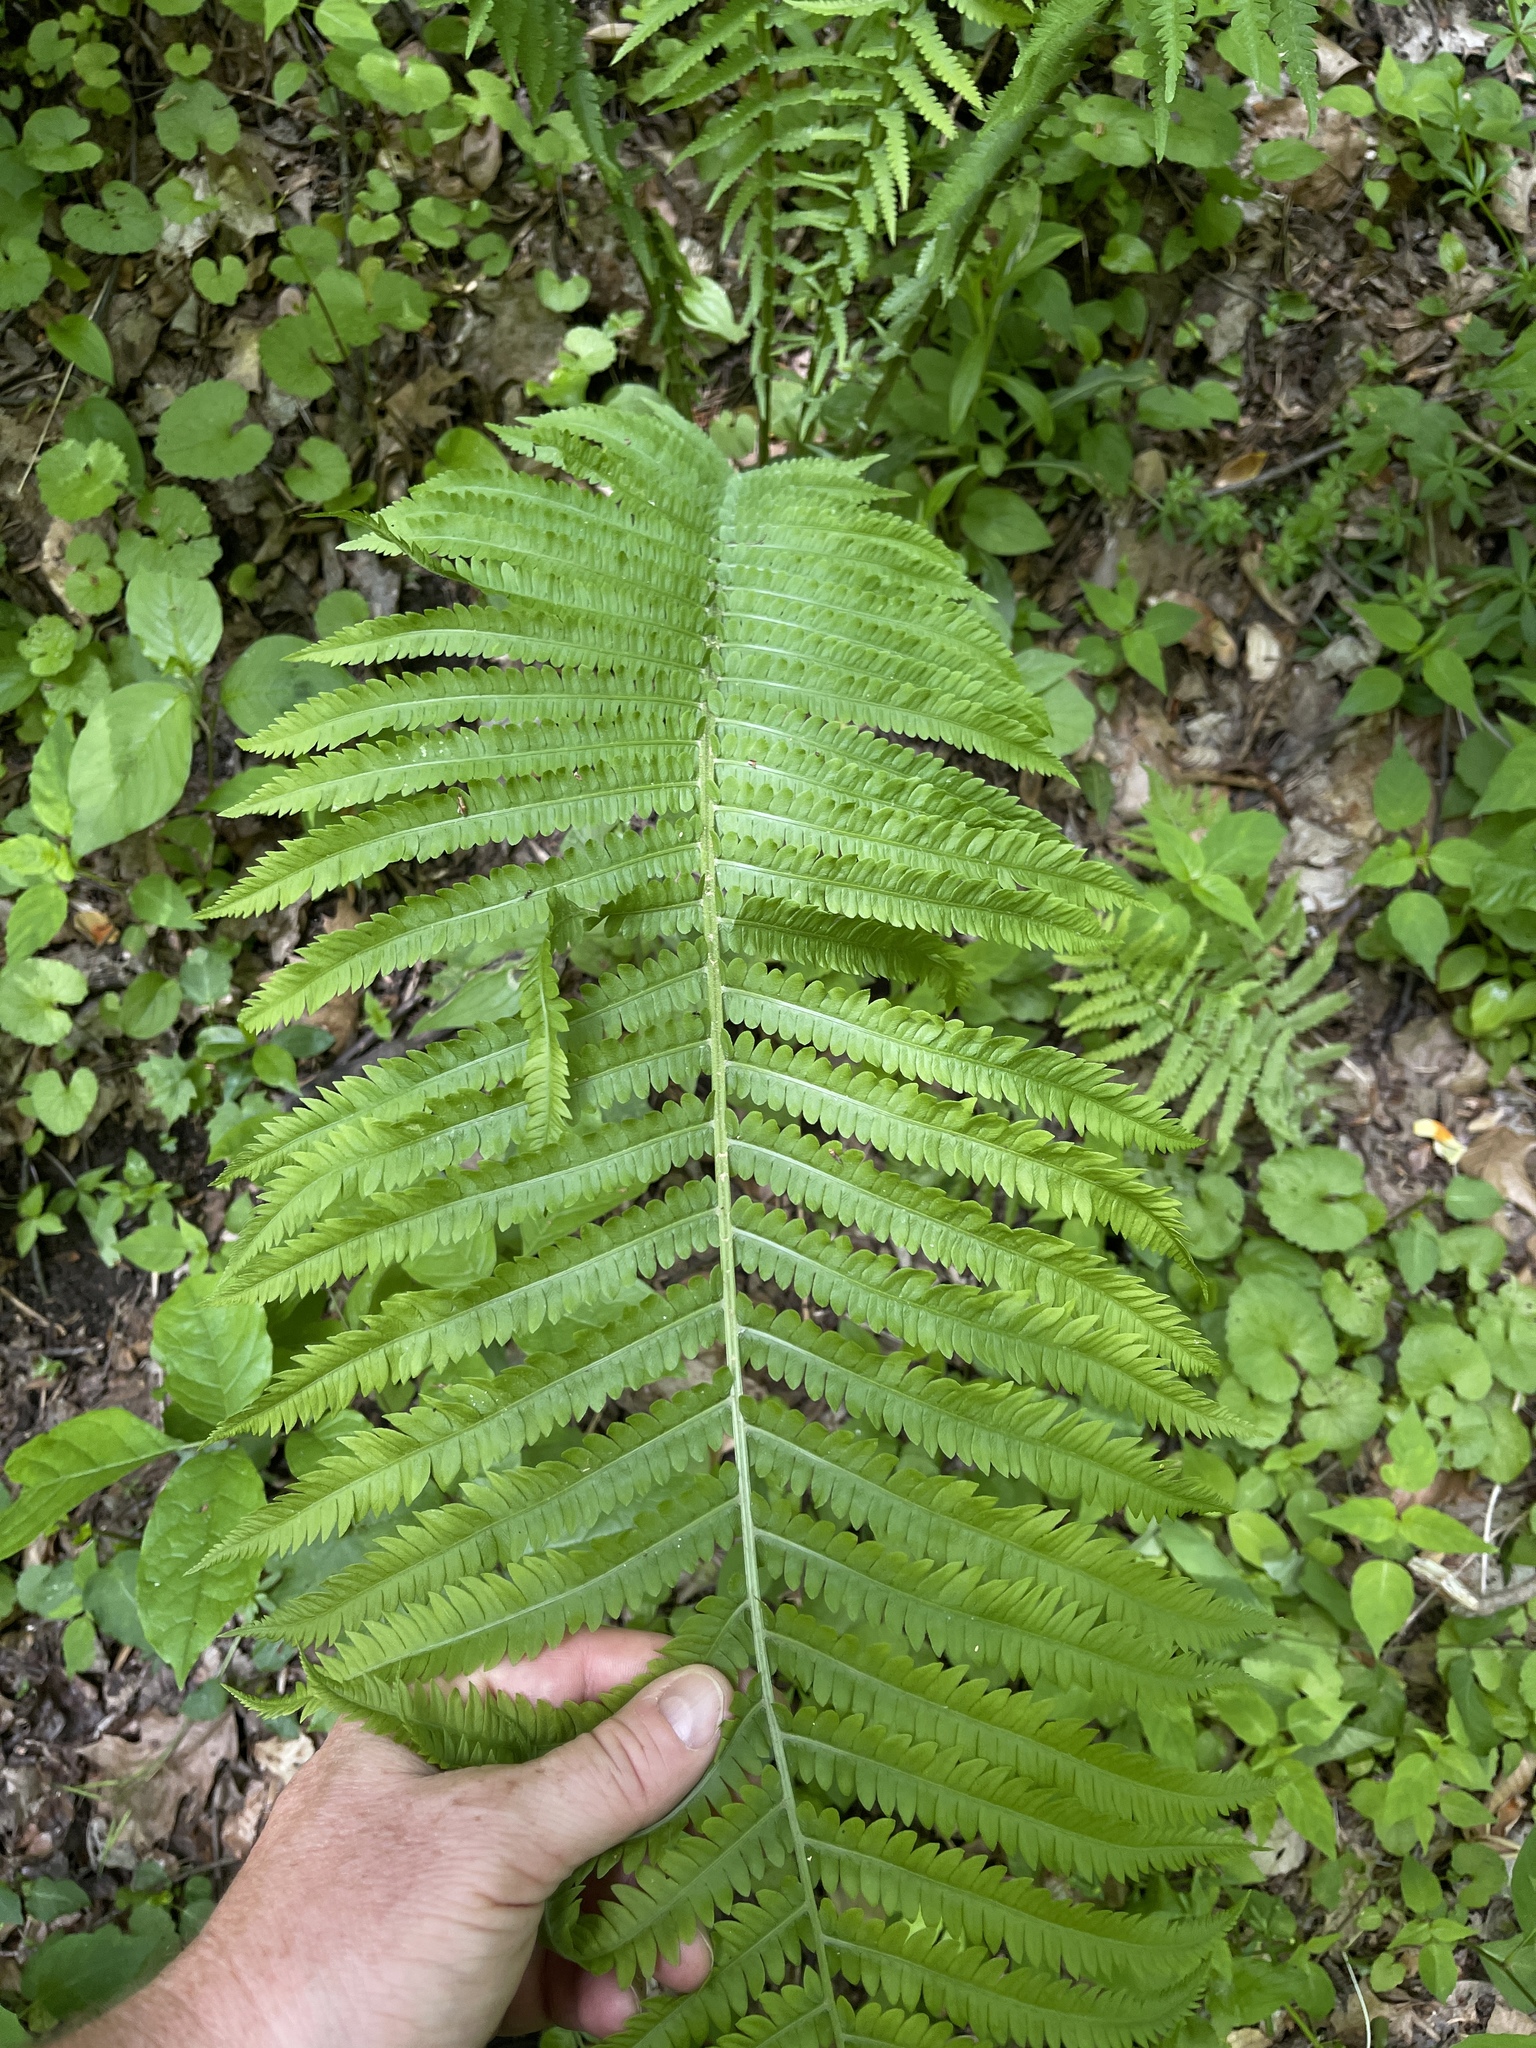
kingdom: Plantae
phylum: Tracheophyta
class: Polypodiopsida
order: Polypodiales
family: Onocleaceae
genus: Matteuccia
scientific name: Matteuccia struthiopteris
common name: Ostrich fern
